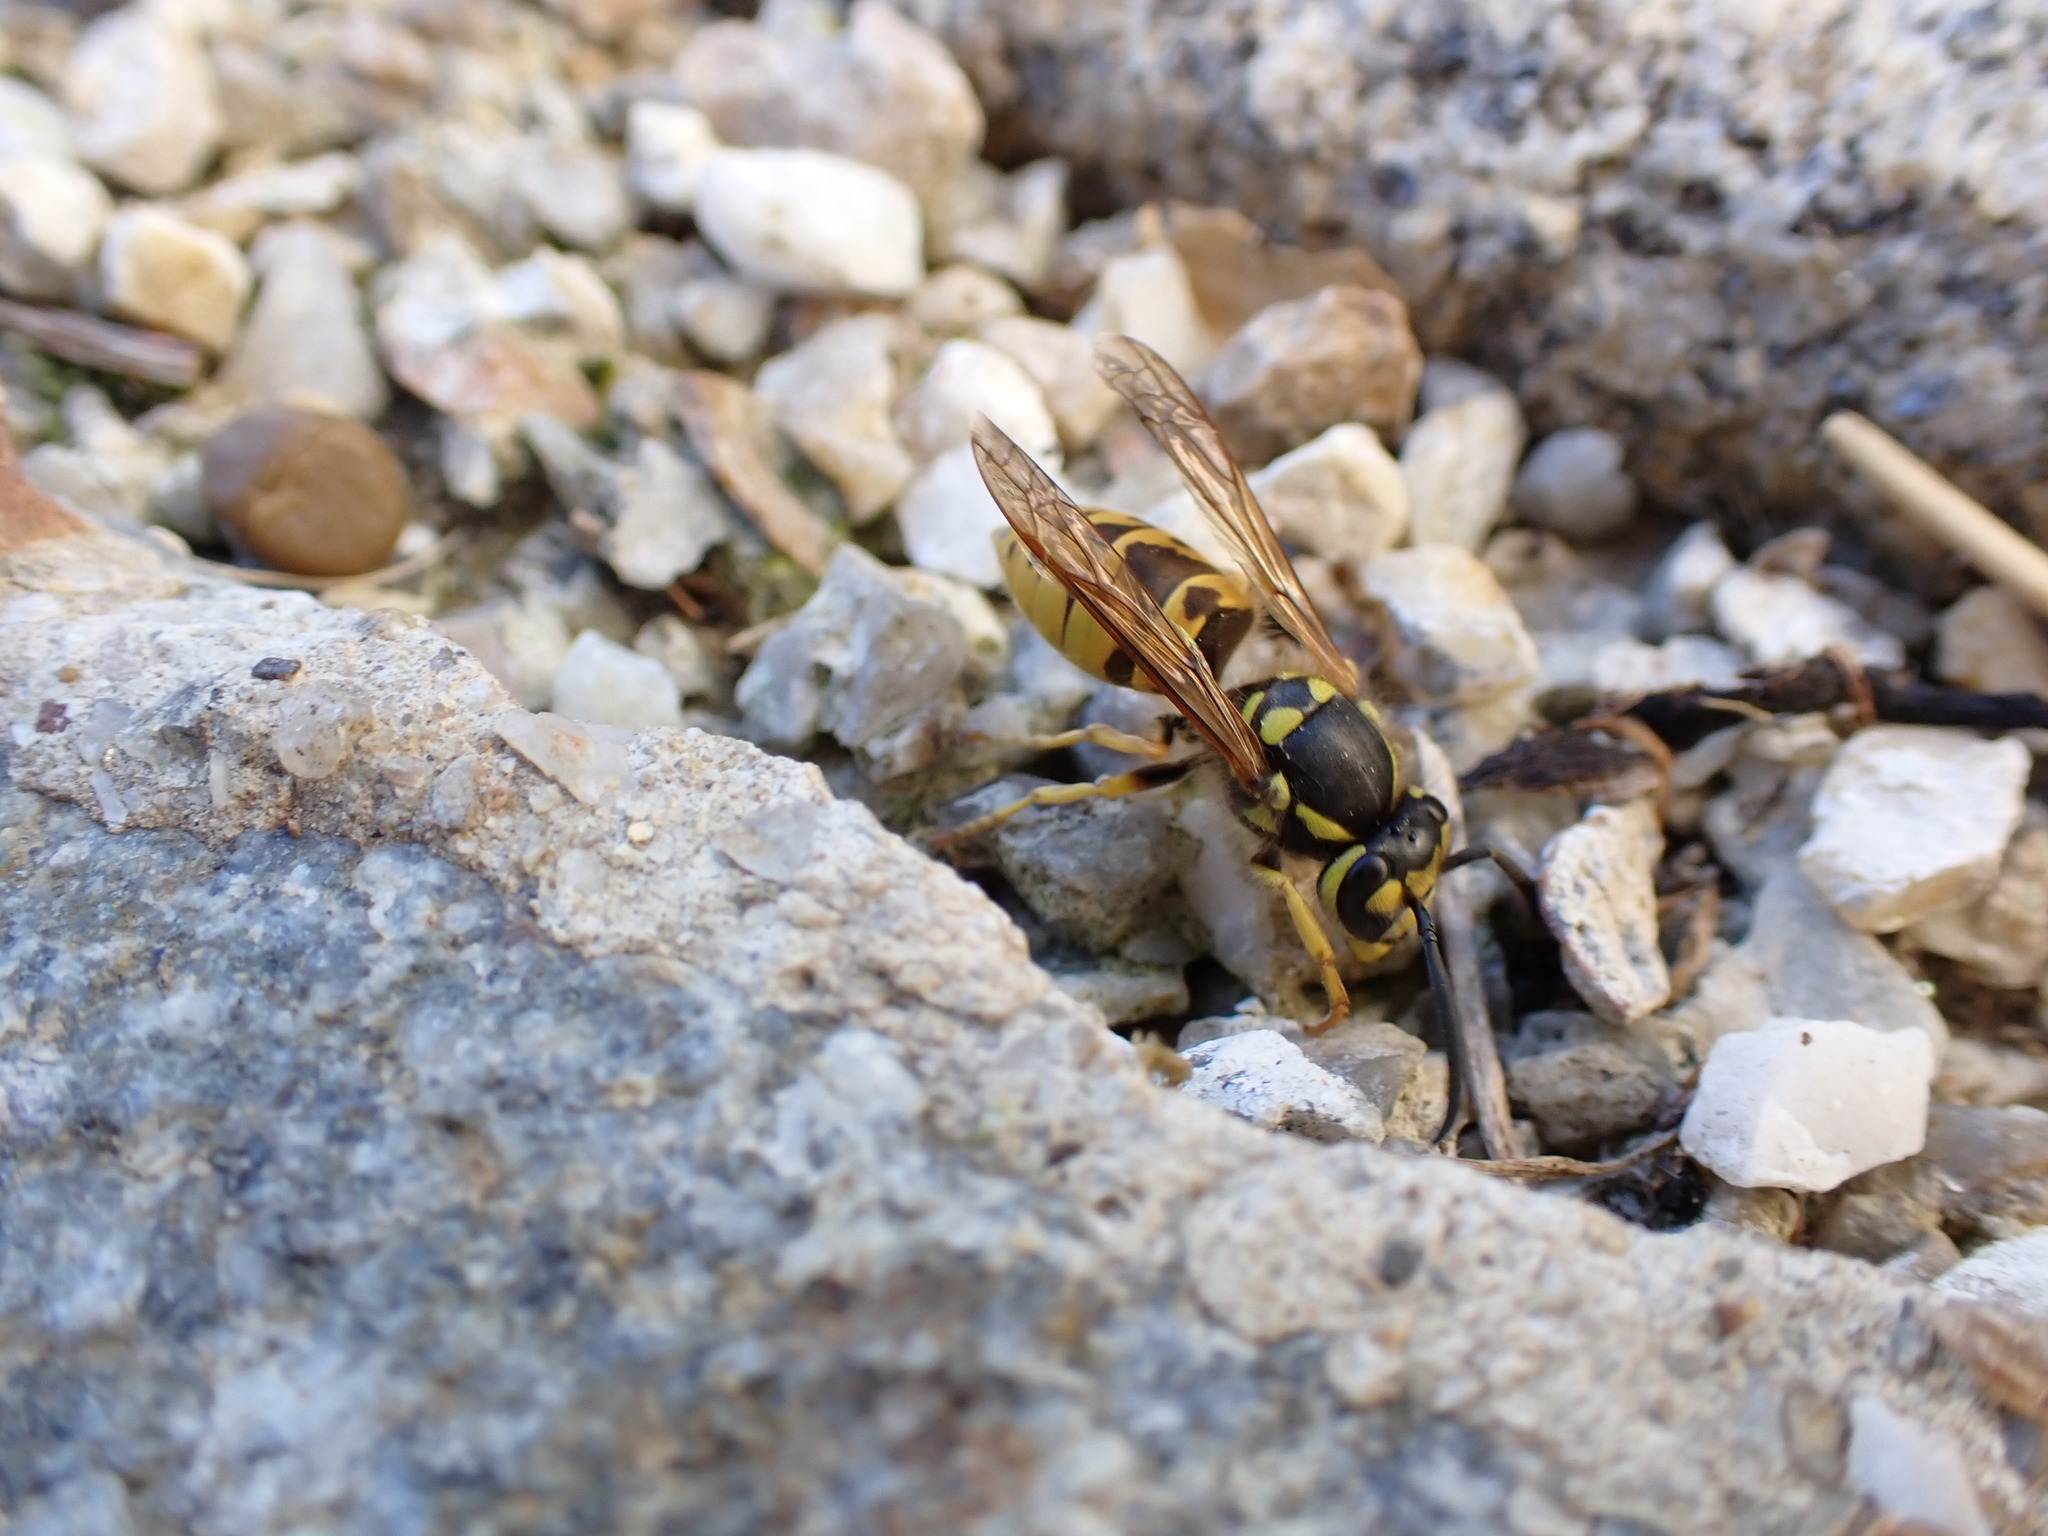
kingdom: Animalia
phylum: Arthropoda
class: Insecta
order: Hymenoptera
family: Vespidae
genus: Vespula
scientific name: Vespula germanica
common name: German wasp
